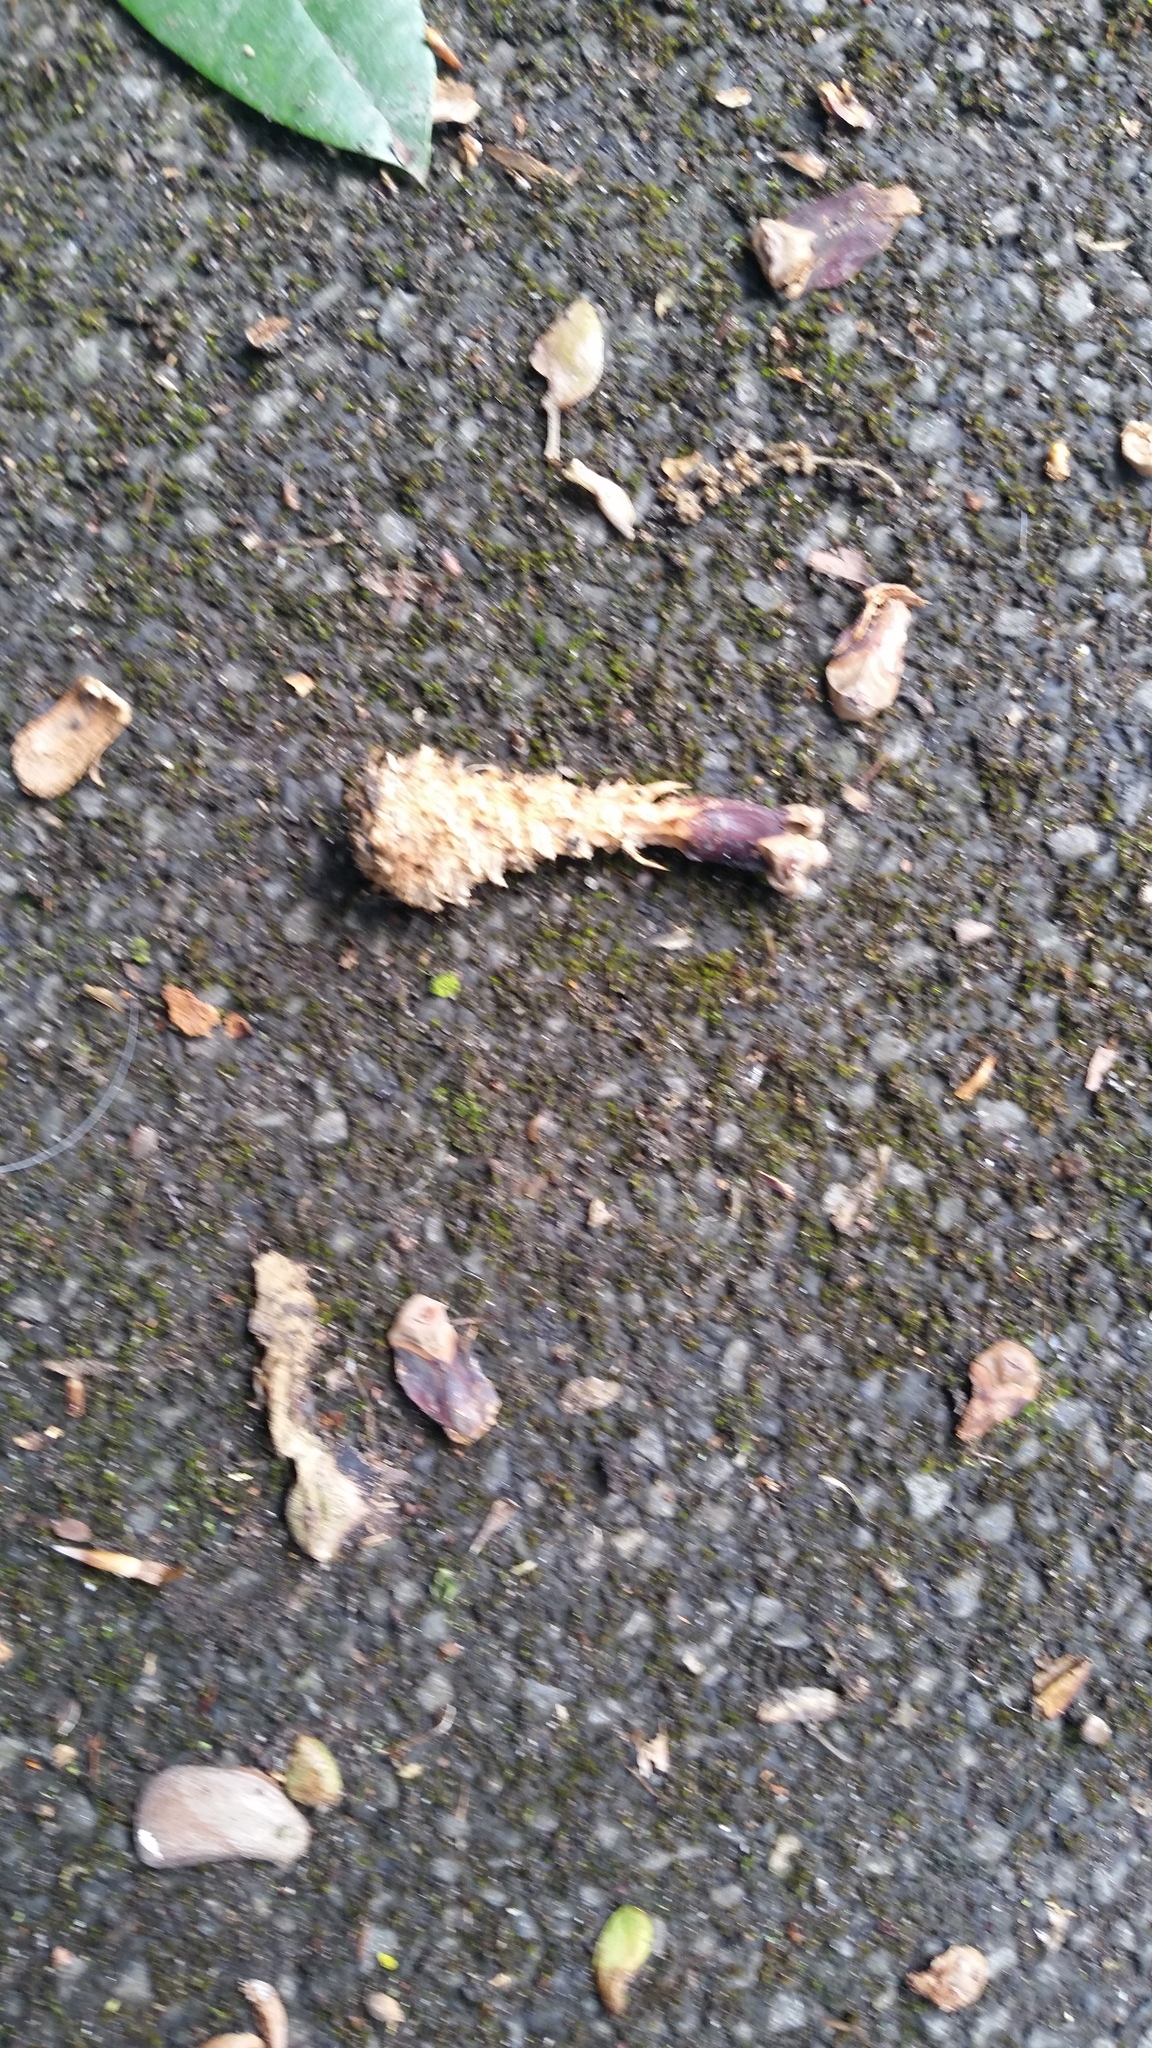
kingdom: Animalia
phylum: Chordata
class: Mammalia
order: Rodentia
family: Sciuridae
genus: Sciurus
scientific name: Sciurus carolinensis
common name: Eastern gray squirrel
